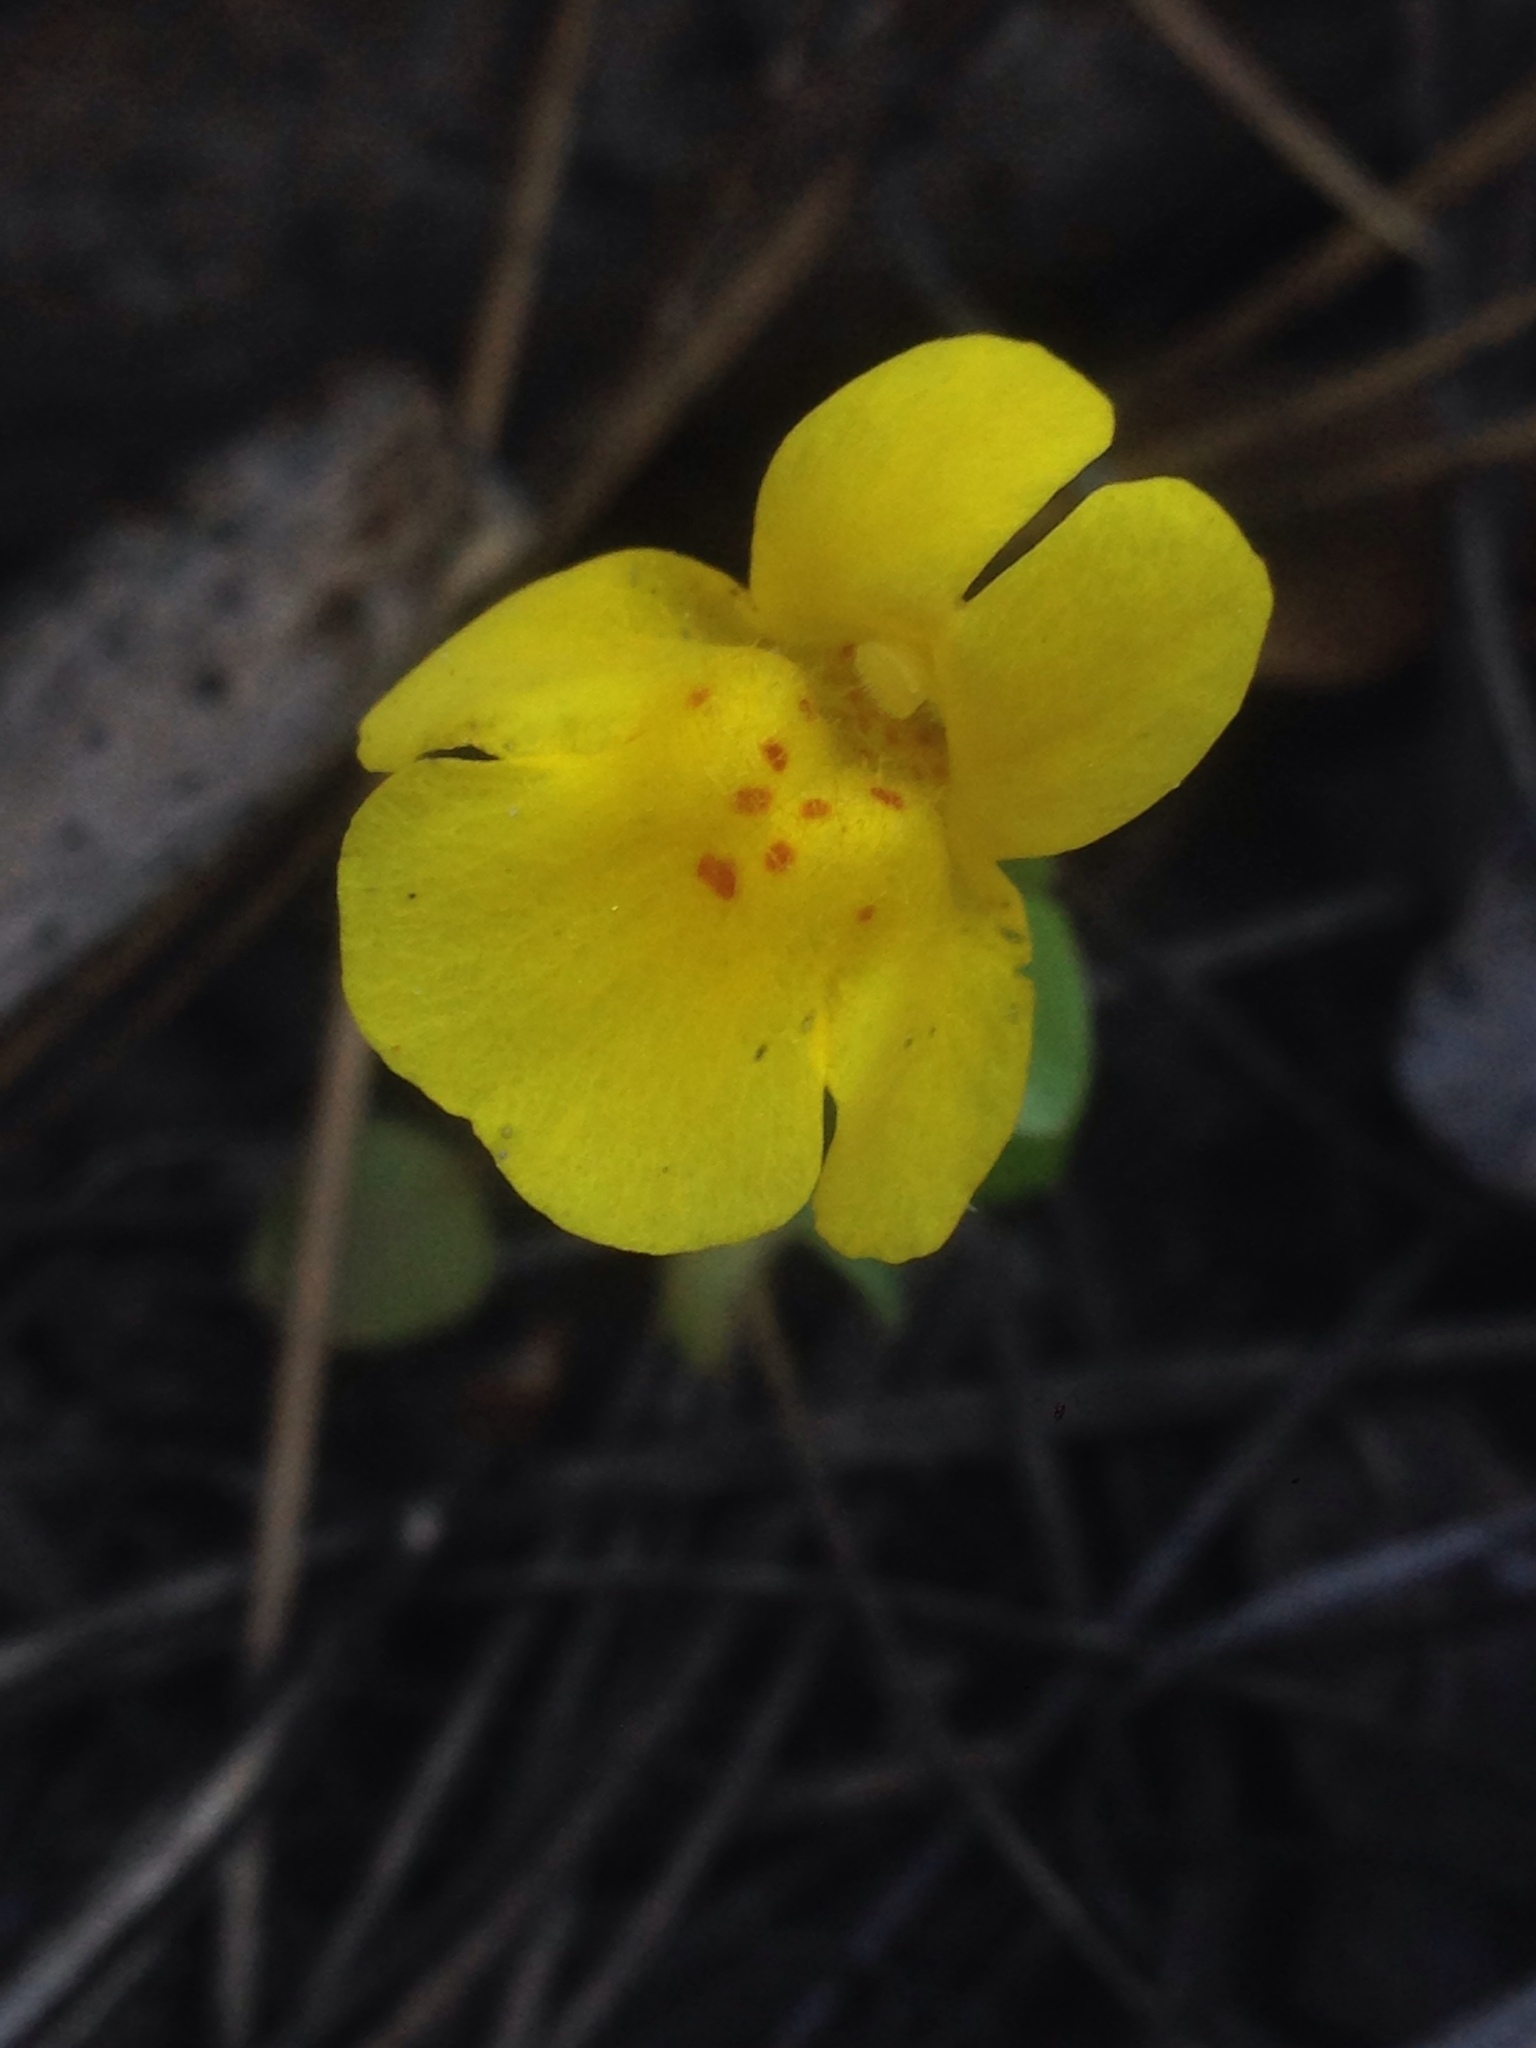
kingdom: Plantae
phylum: Tracheophyta
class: Magnoliopsida
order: Lamiales
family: Phrymaceae
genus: Erythranthe
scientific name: Erythranthe guttata
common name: Monkeyflower
